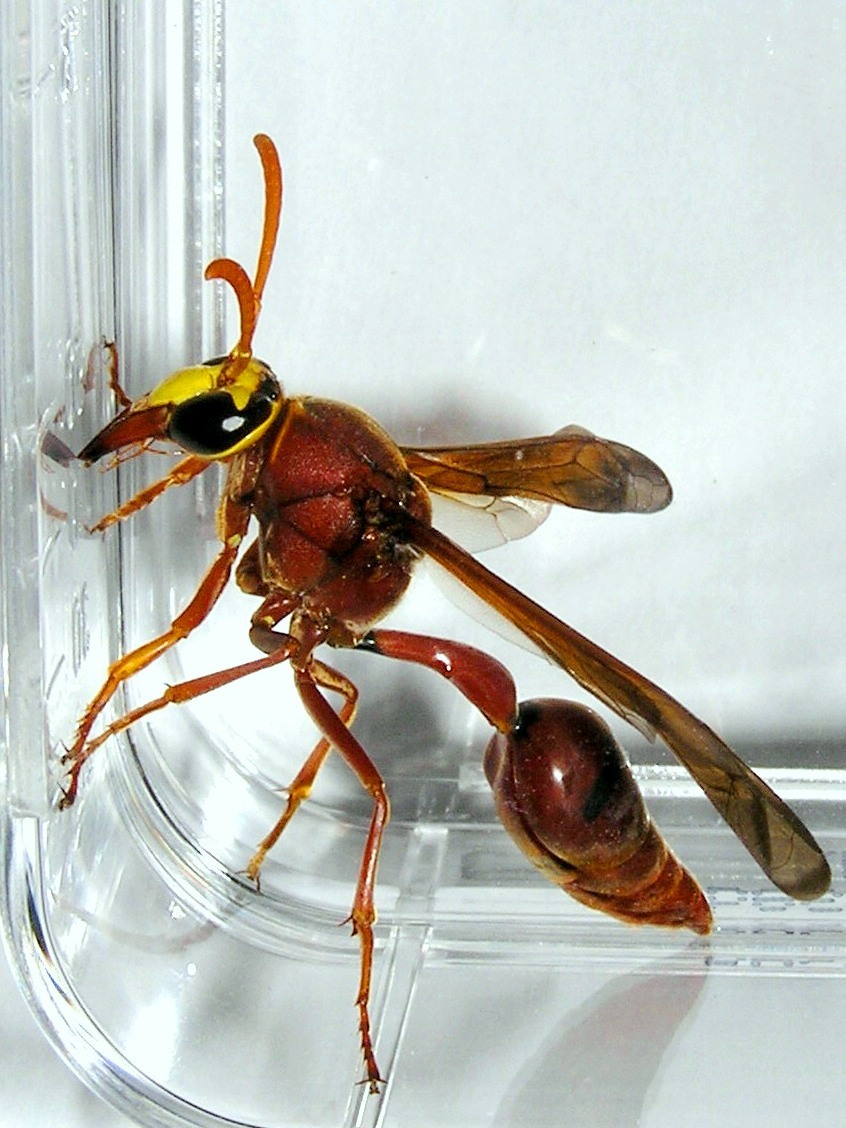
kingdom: Animalia
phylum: Arthropoda
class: Insecta
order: Hymenoptera
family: Eumenidae
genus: Delta
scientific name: Delta conoideum
